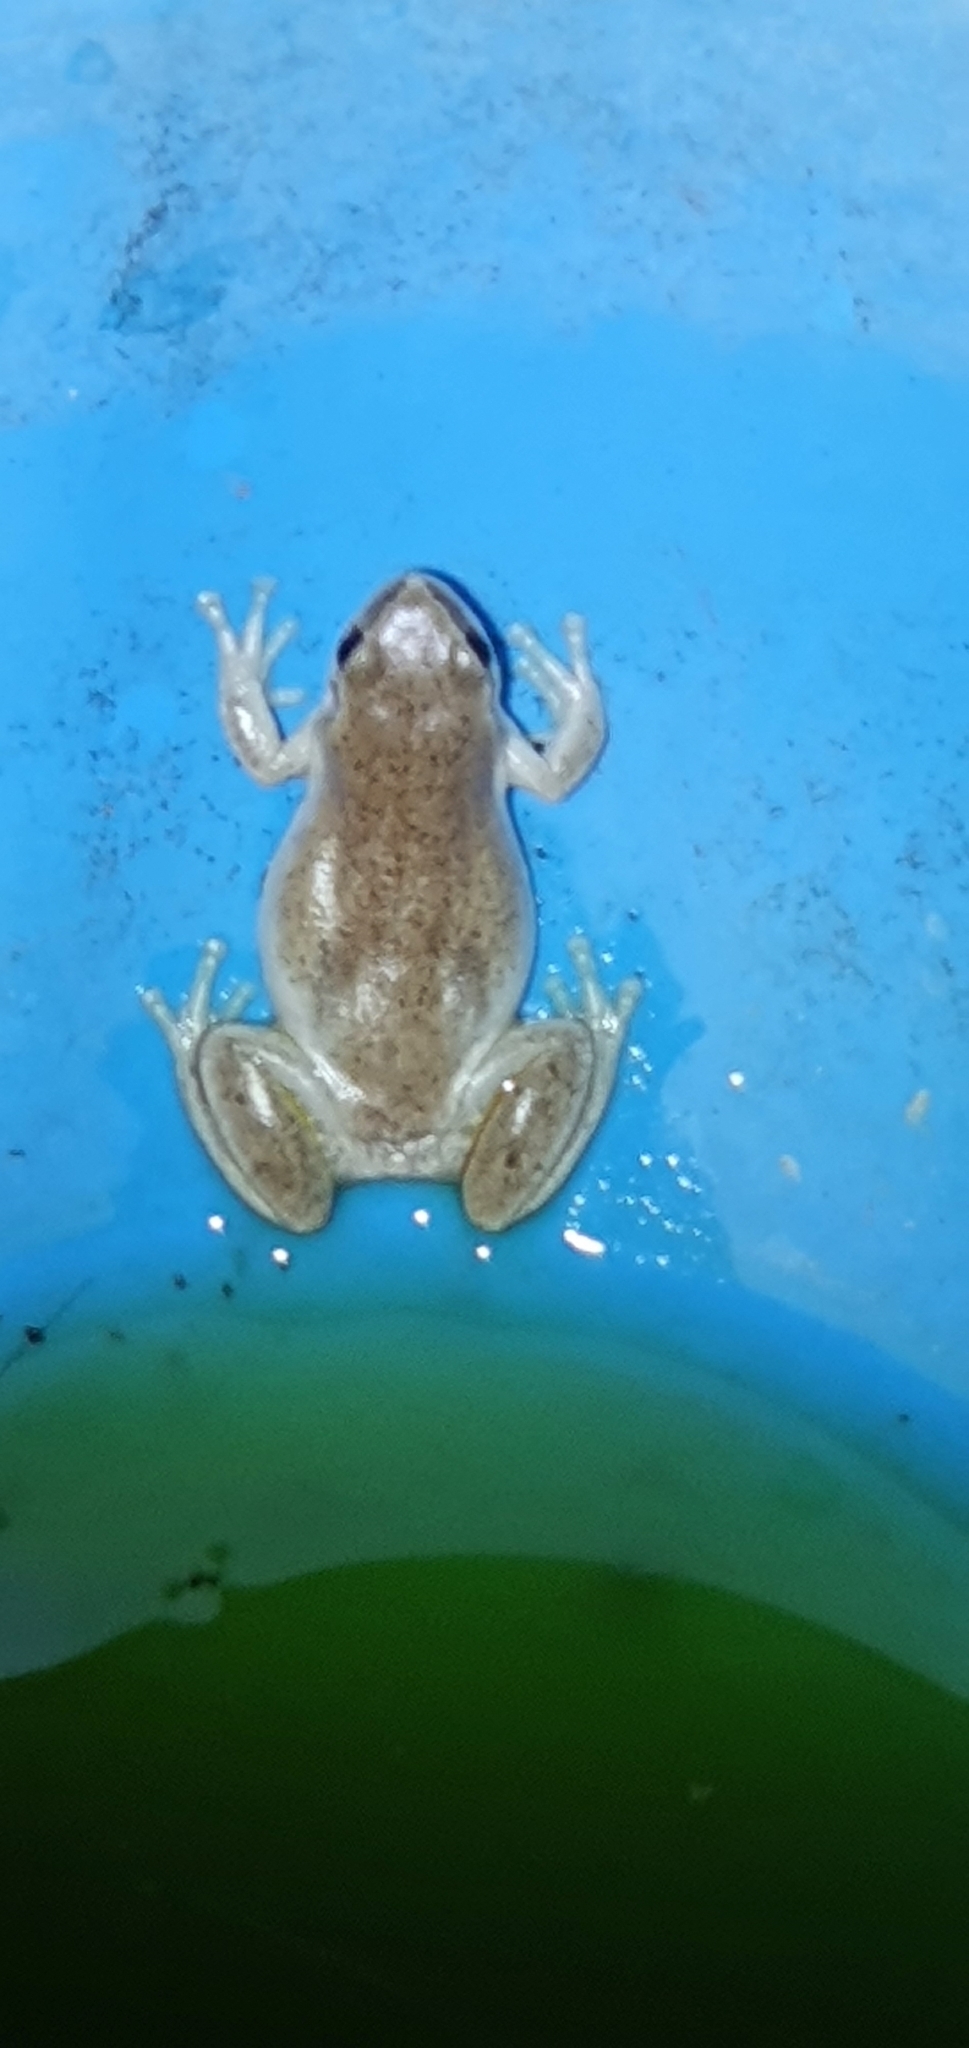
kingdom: Animalia
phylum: Chordata
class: Amphibia
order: Anura
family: Pelodryadidae
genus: Litoria
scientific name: Litoria rubella
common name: Desert tree frog
